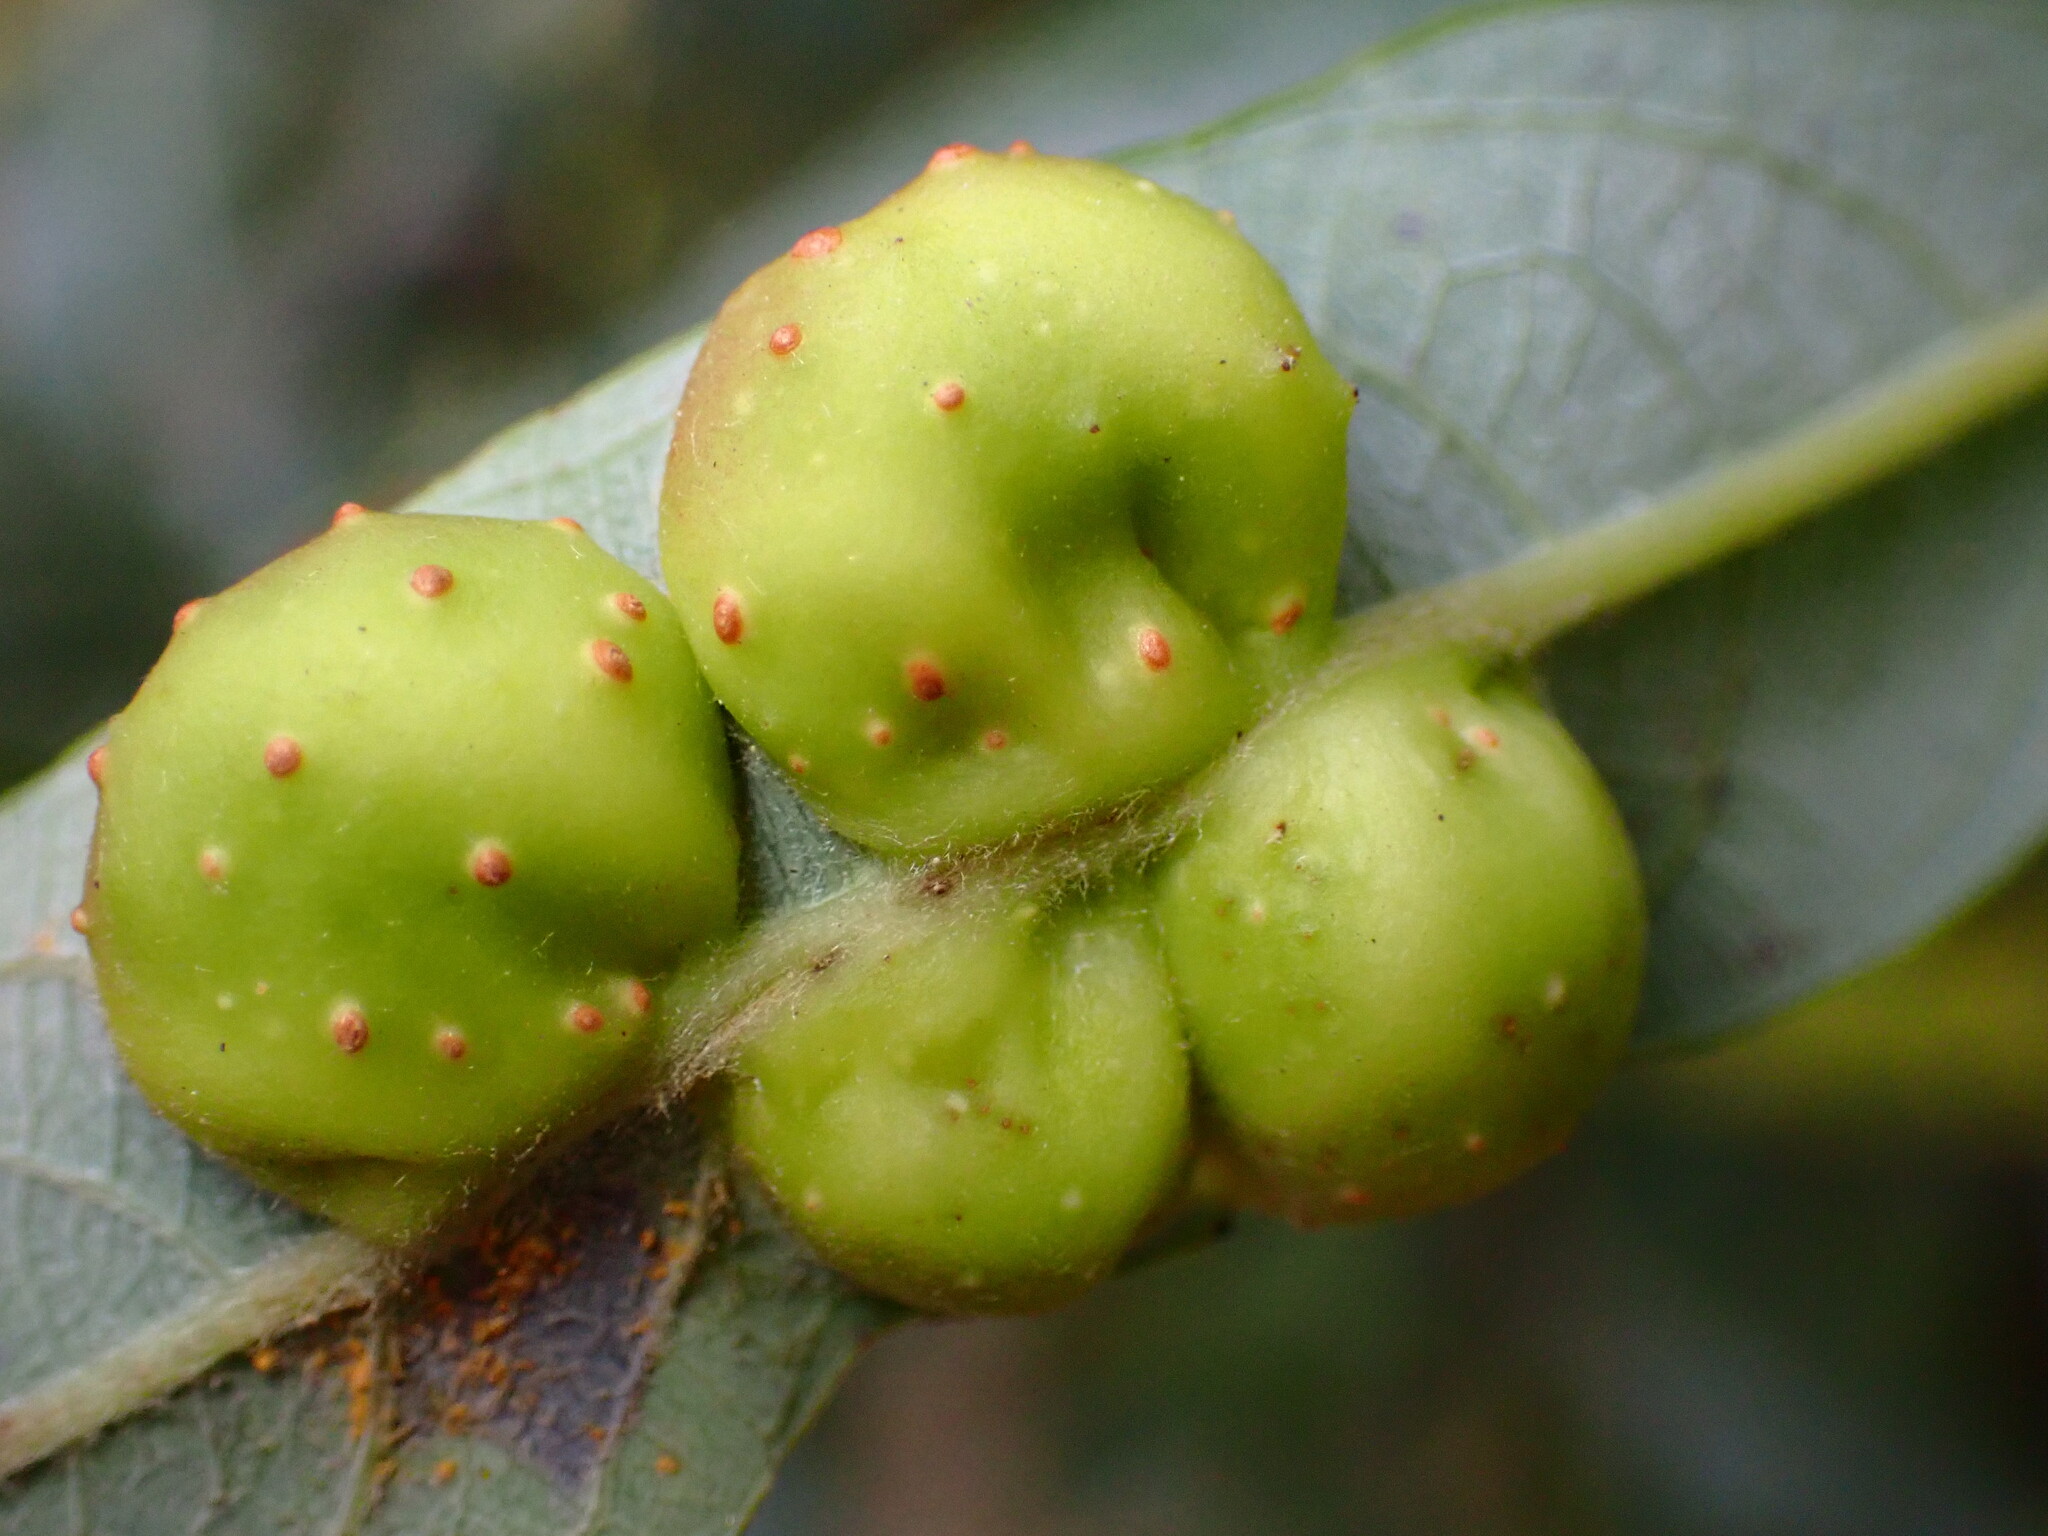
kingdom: Animalia
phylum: Arthropoda
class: Insecta
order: Hymenoptera
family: Tenthredinidae
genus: Euura
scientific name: Euura
